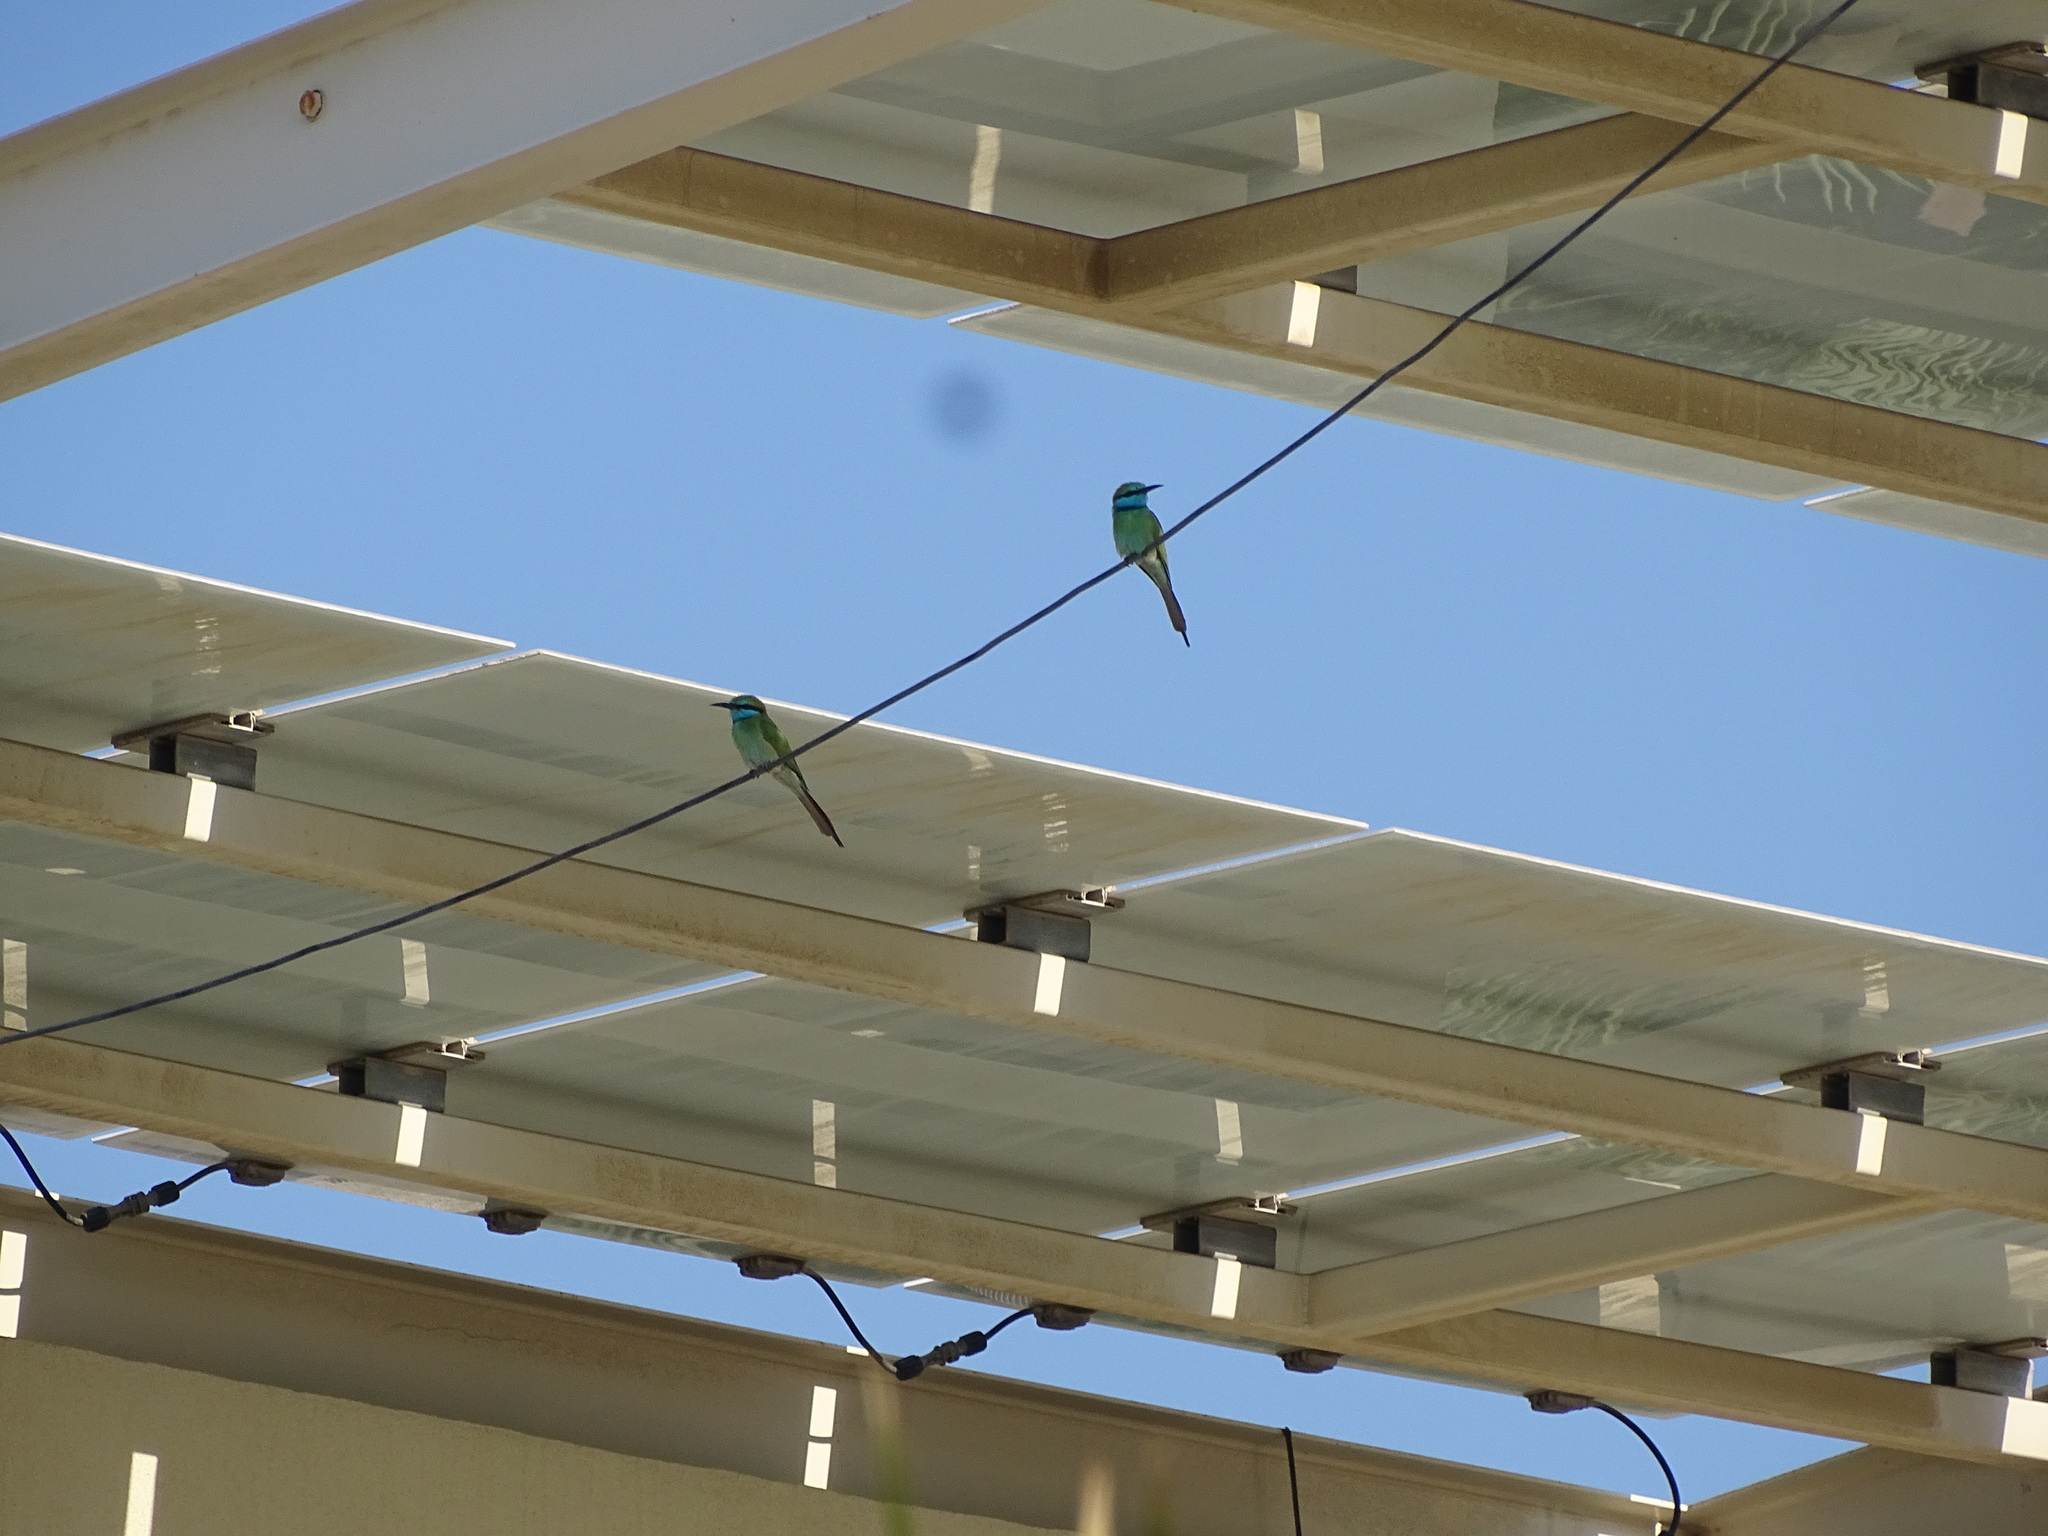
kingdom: Animalia
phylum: Chordata
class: Aves
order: Coraciiformes
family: Meropidae
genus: Merops
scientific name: Merops cyanophrys
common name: Arabian green bee-eater
